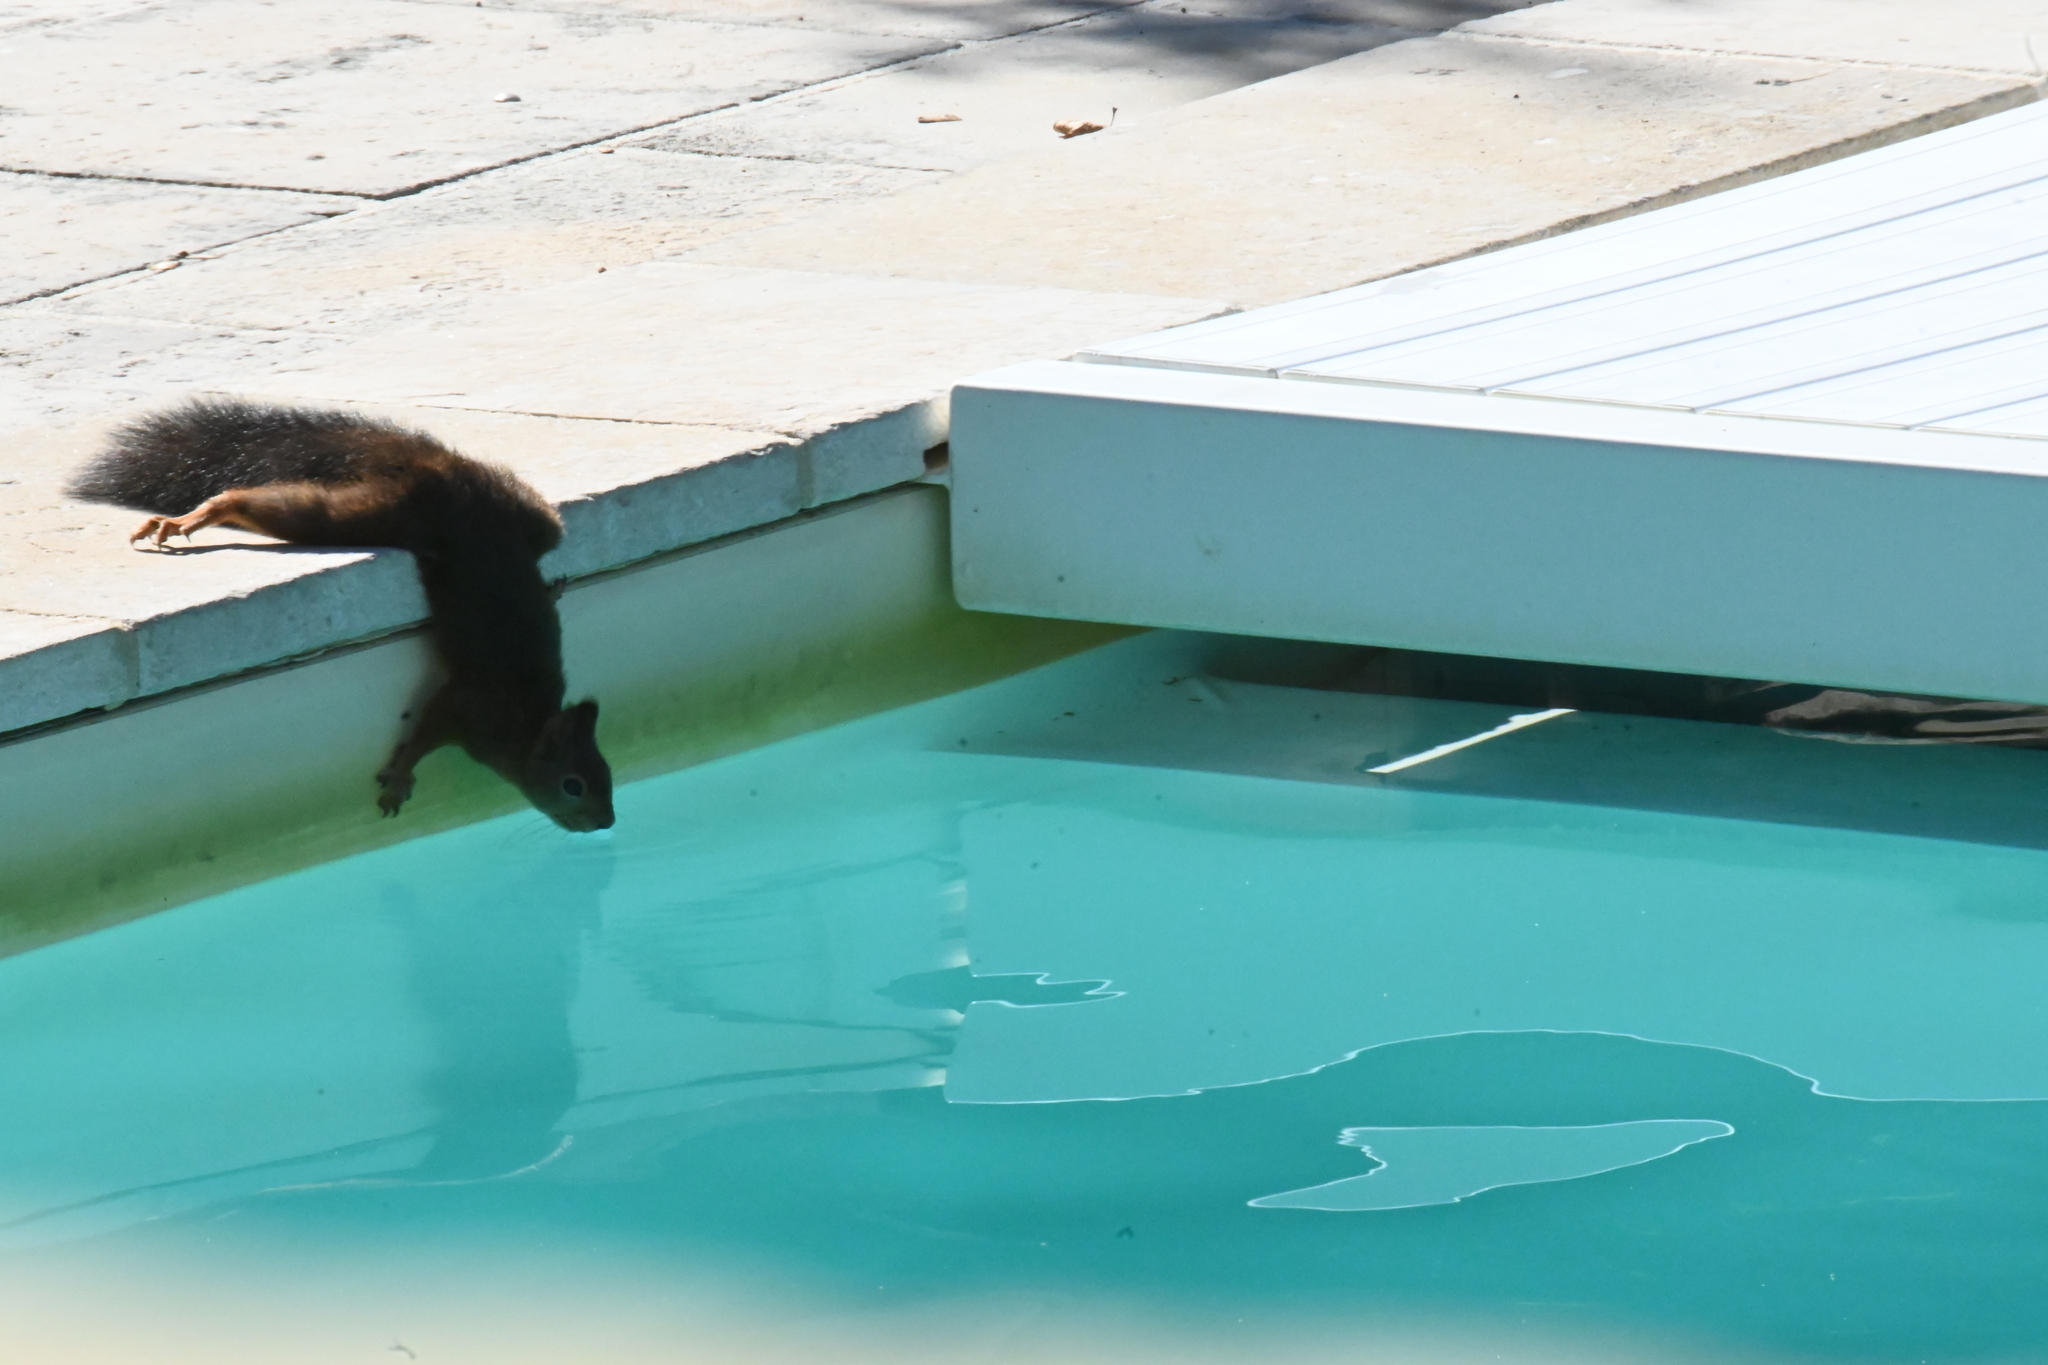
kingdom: Animalia
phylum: Chordata
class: Mammalia
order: Rodentia
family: Sciuridae
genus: Sciurus
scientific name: Sciurus vulgaris
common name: Eurasian red squirrel
